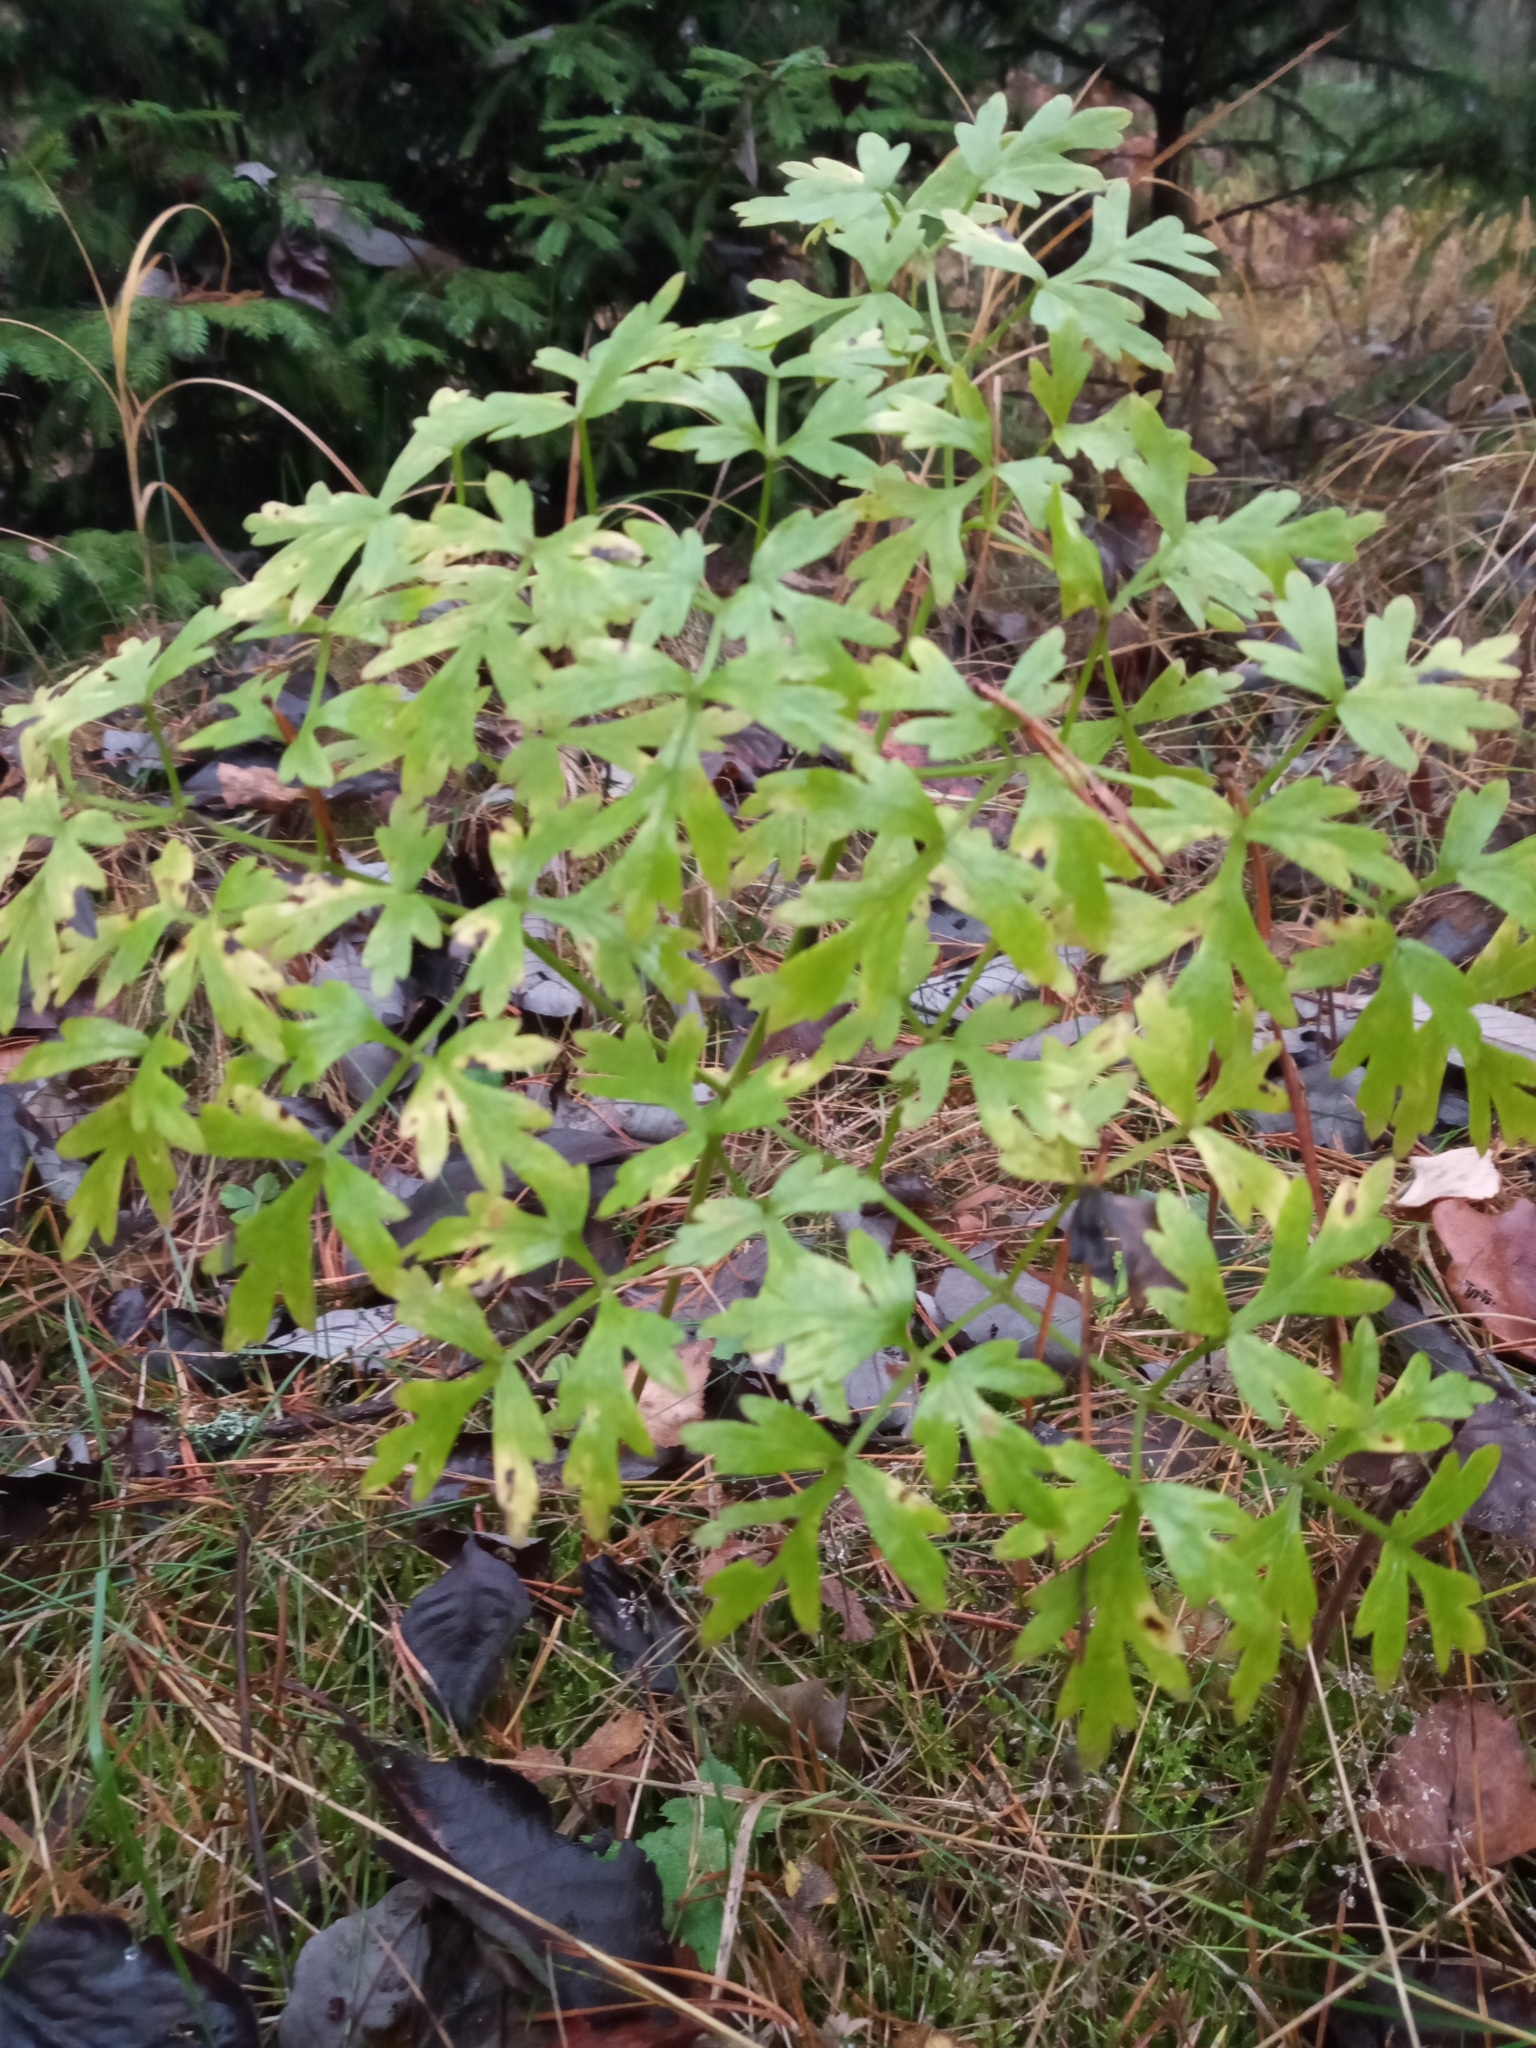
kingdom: Plantae
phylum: Tracheophyta
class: Magnoliopsida
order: Apiales
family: Apiaceae
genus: Oreoselinum
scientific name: Oreoselinum nigrum
